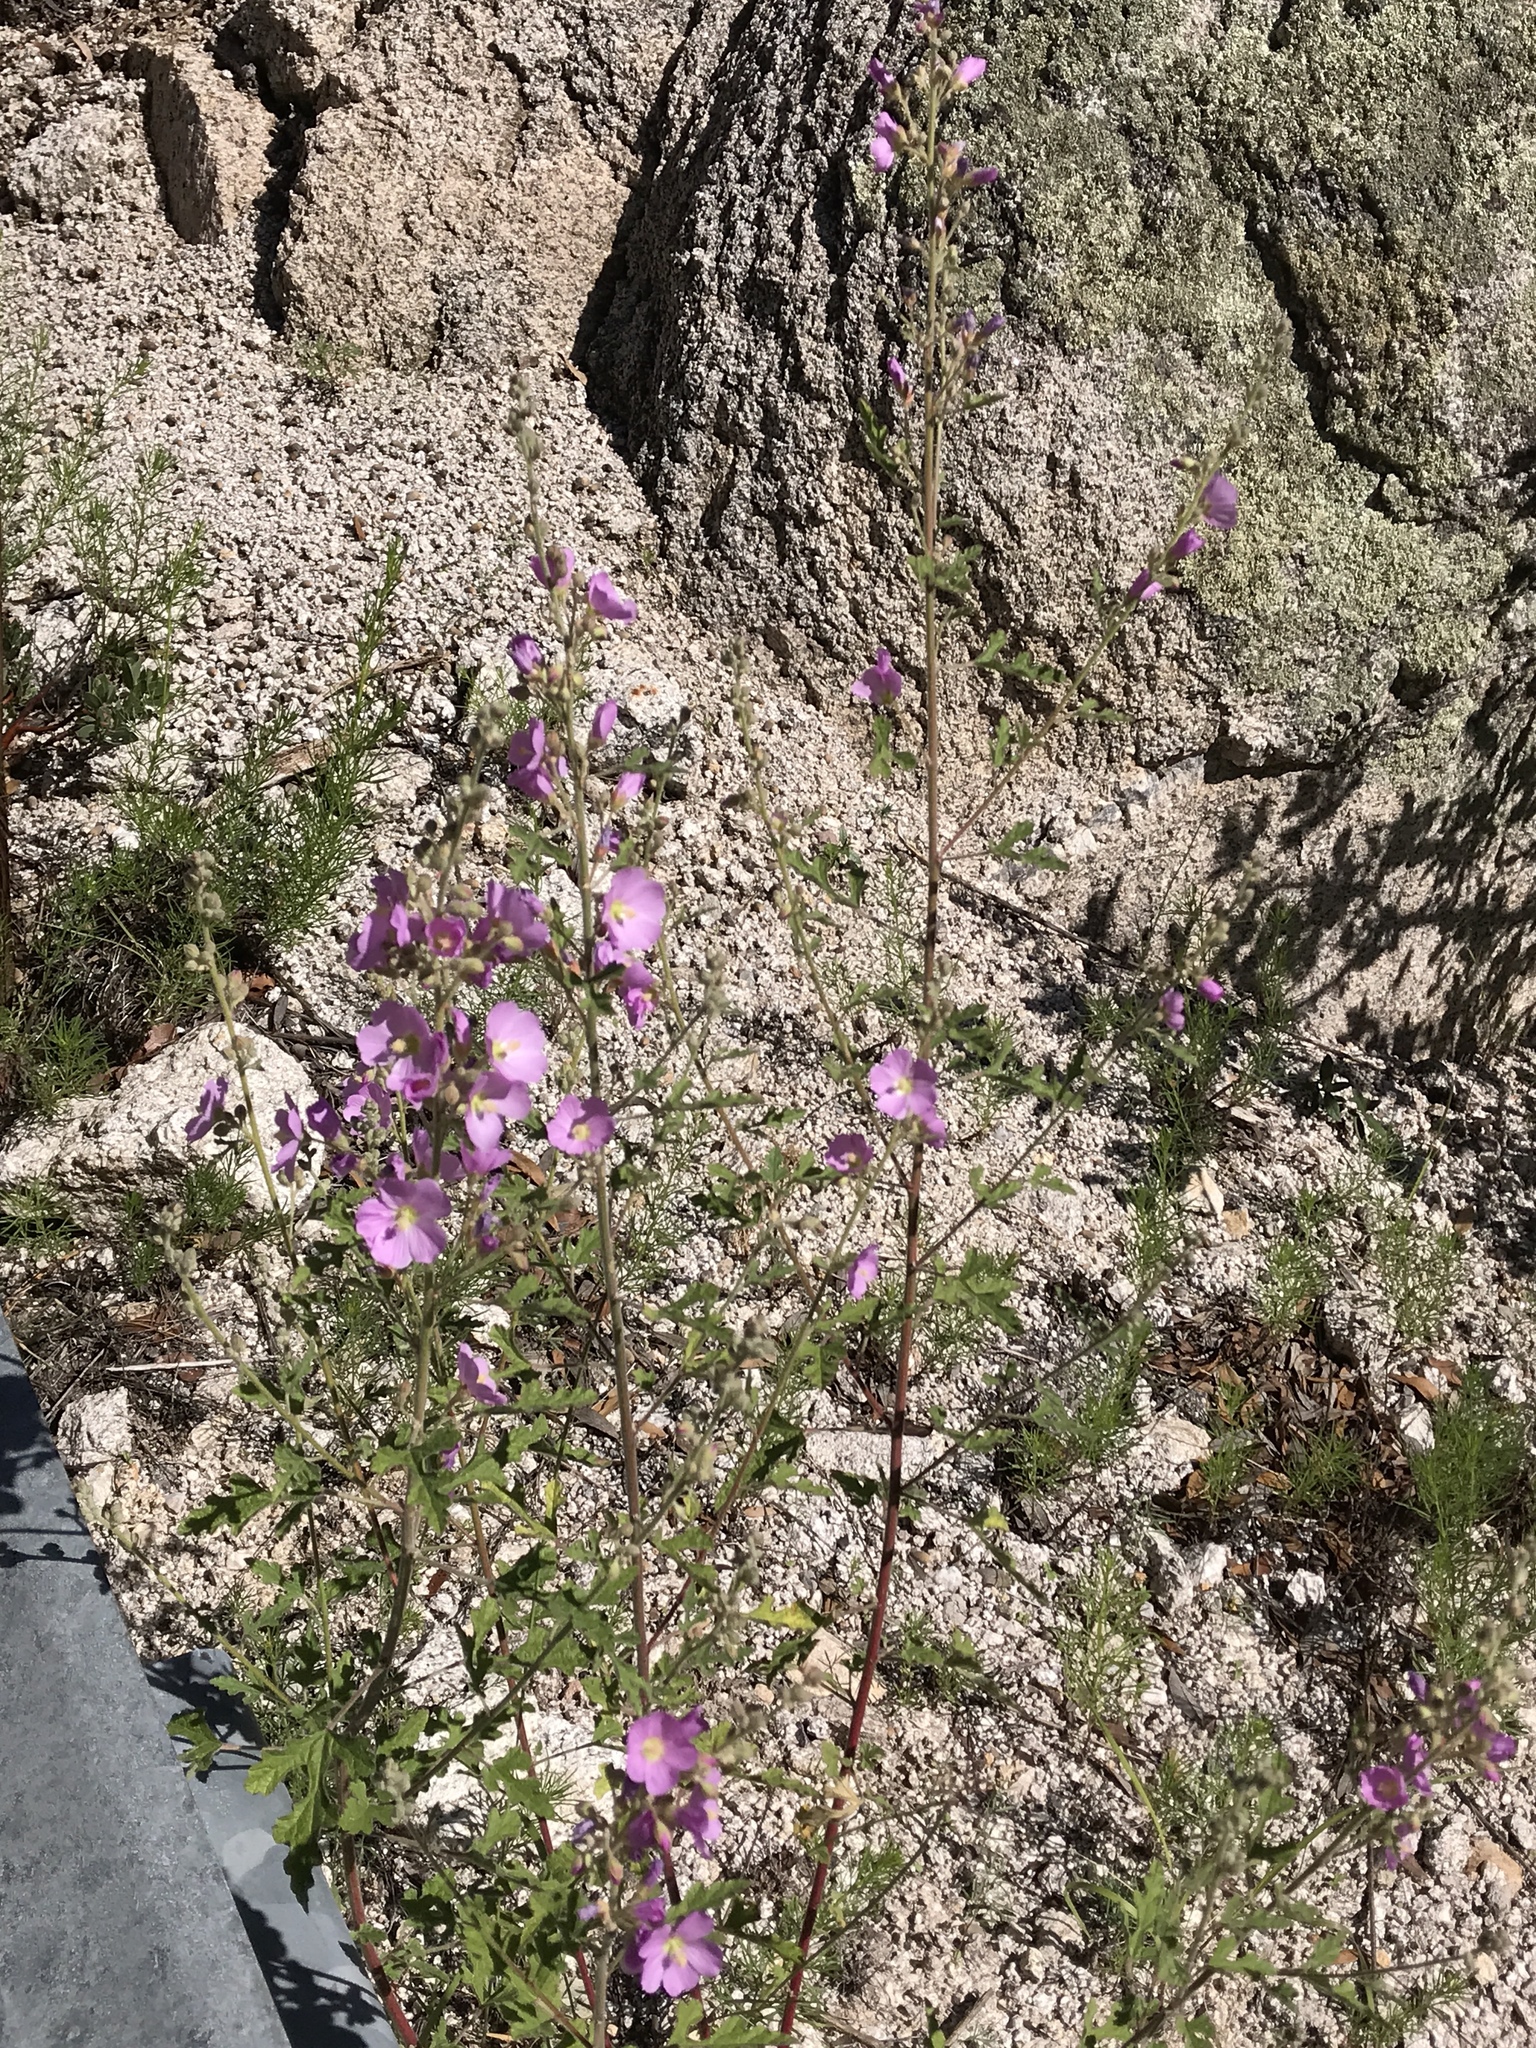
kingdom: Plantae
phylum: Tracheophyta
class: Magnoliopsida
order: Malvales
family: Malvaceae
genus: Sphaeralcea
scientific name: Sphaeralcea fendleri
